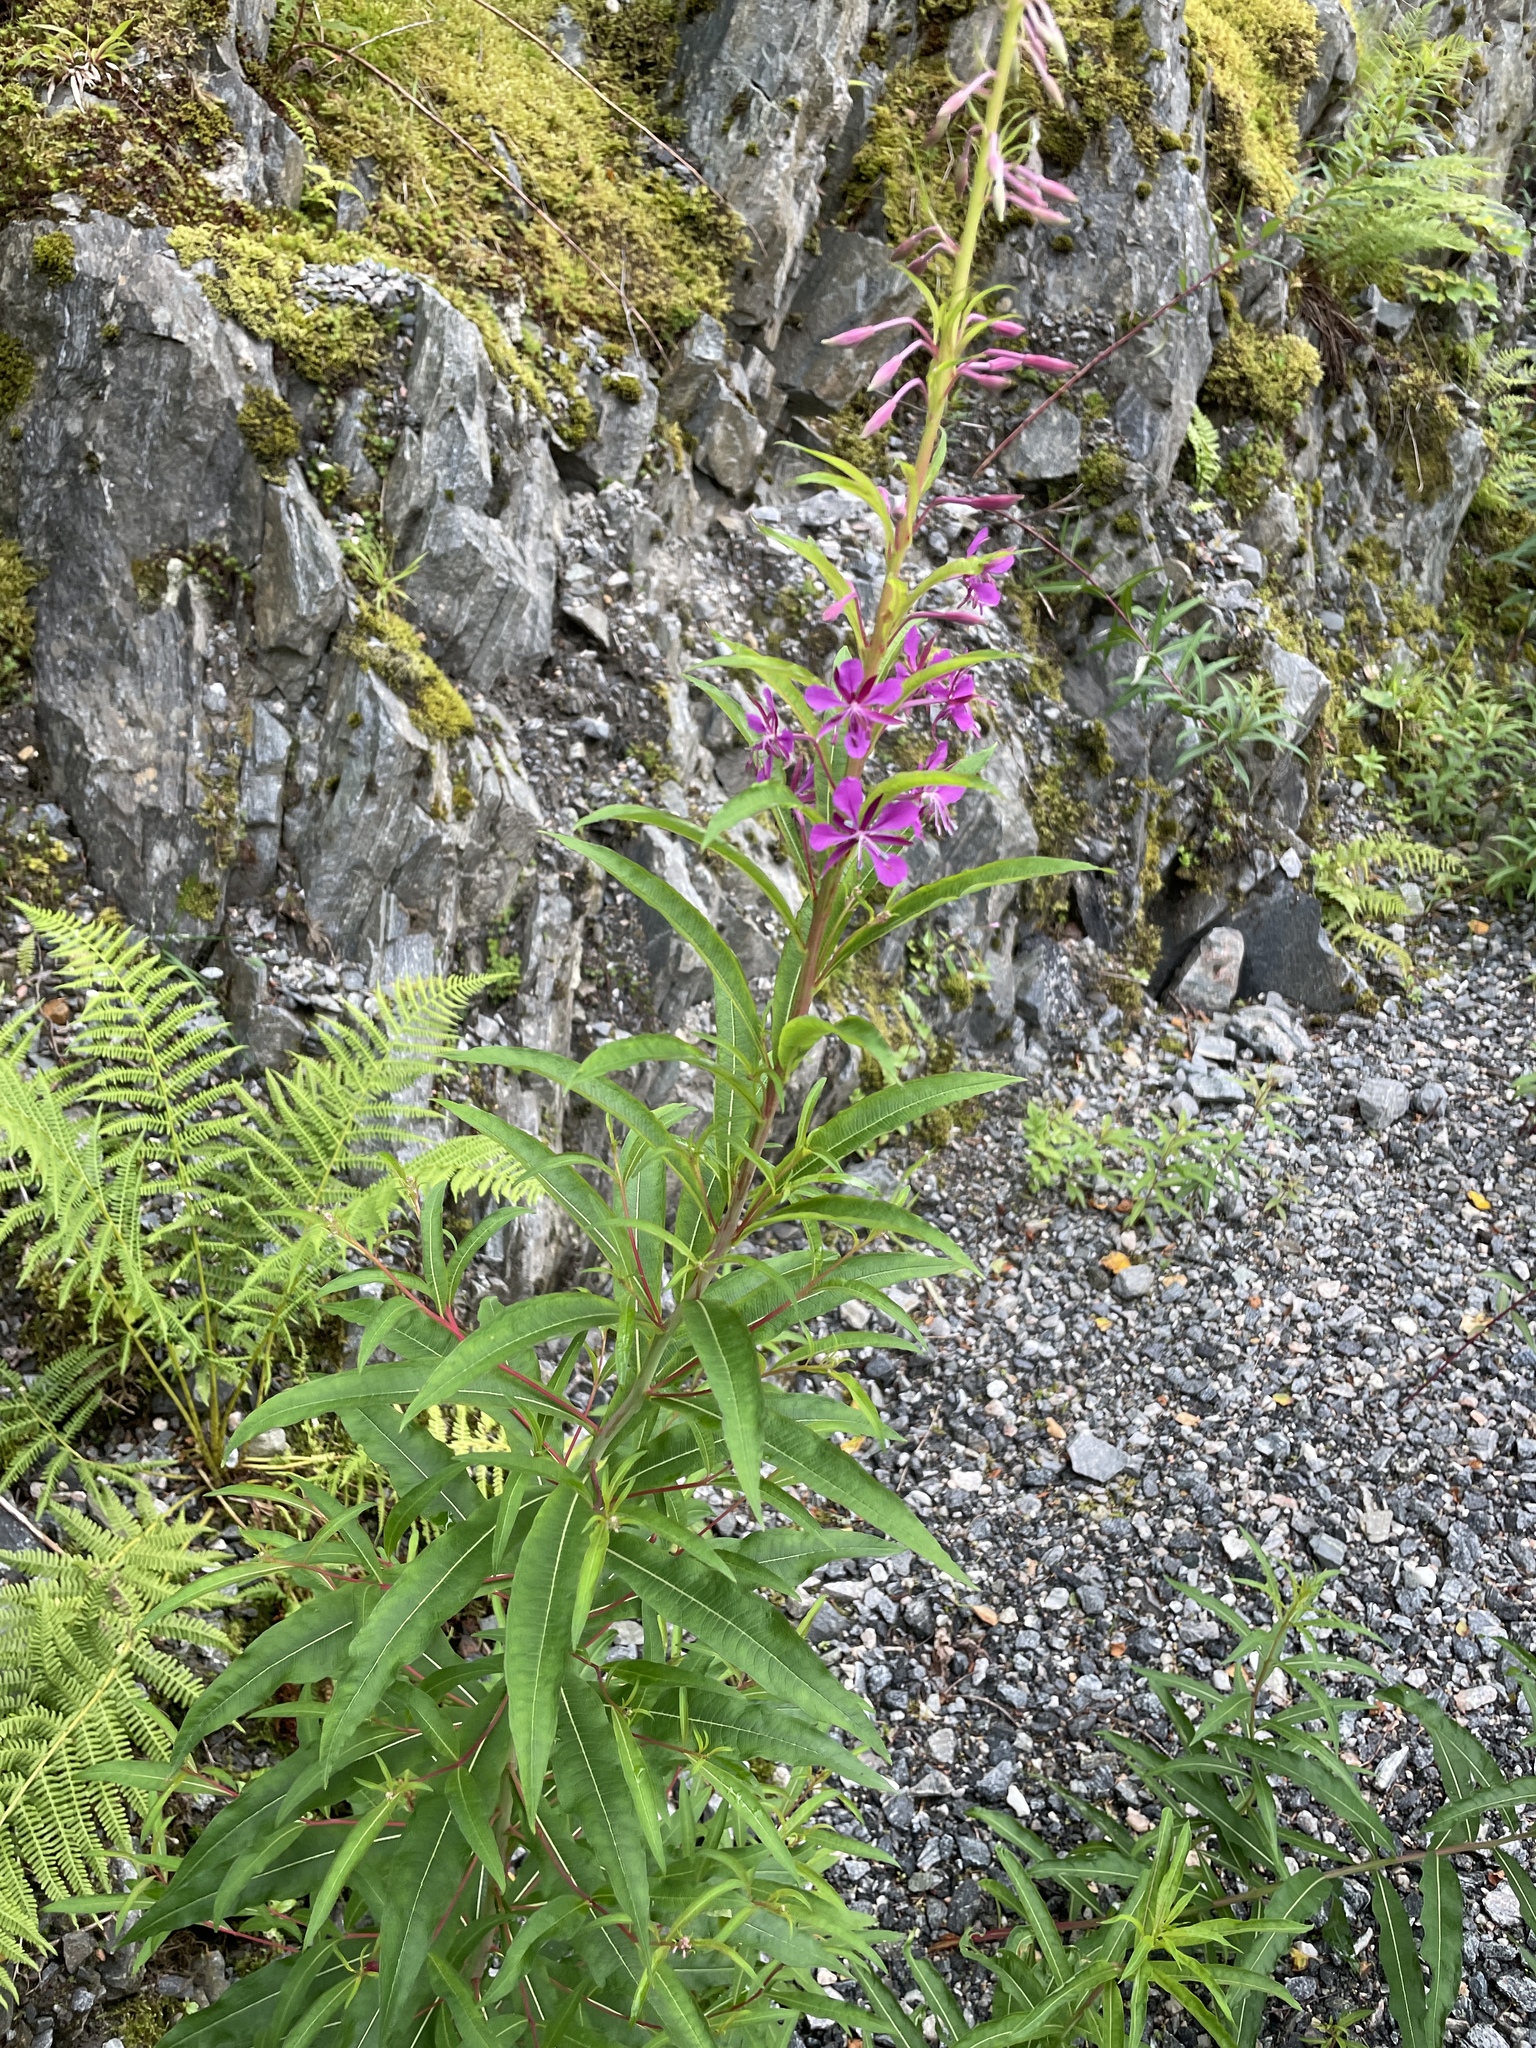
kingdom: Plantae
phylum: Tracheophyta
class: Magnoliopsida
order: Myrtales
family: Onagraceae
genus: Chamaenerion
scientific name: Chamaenerion angustifolium
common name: Fireweed
